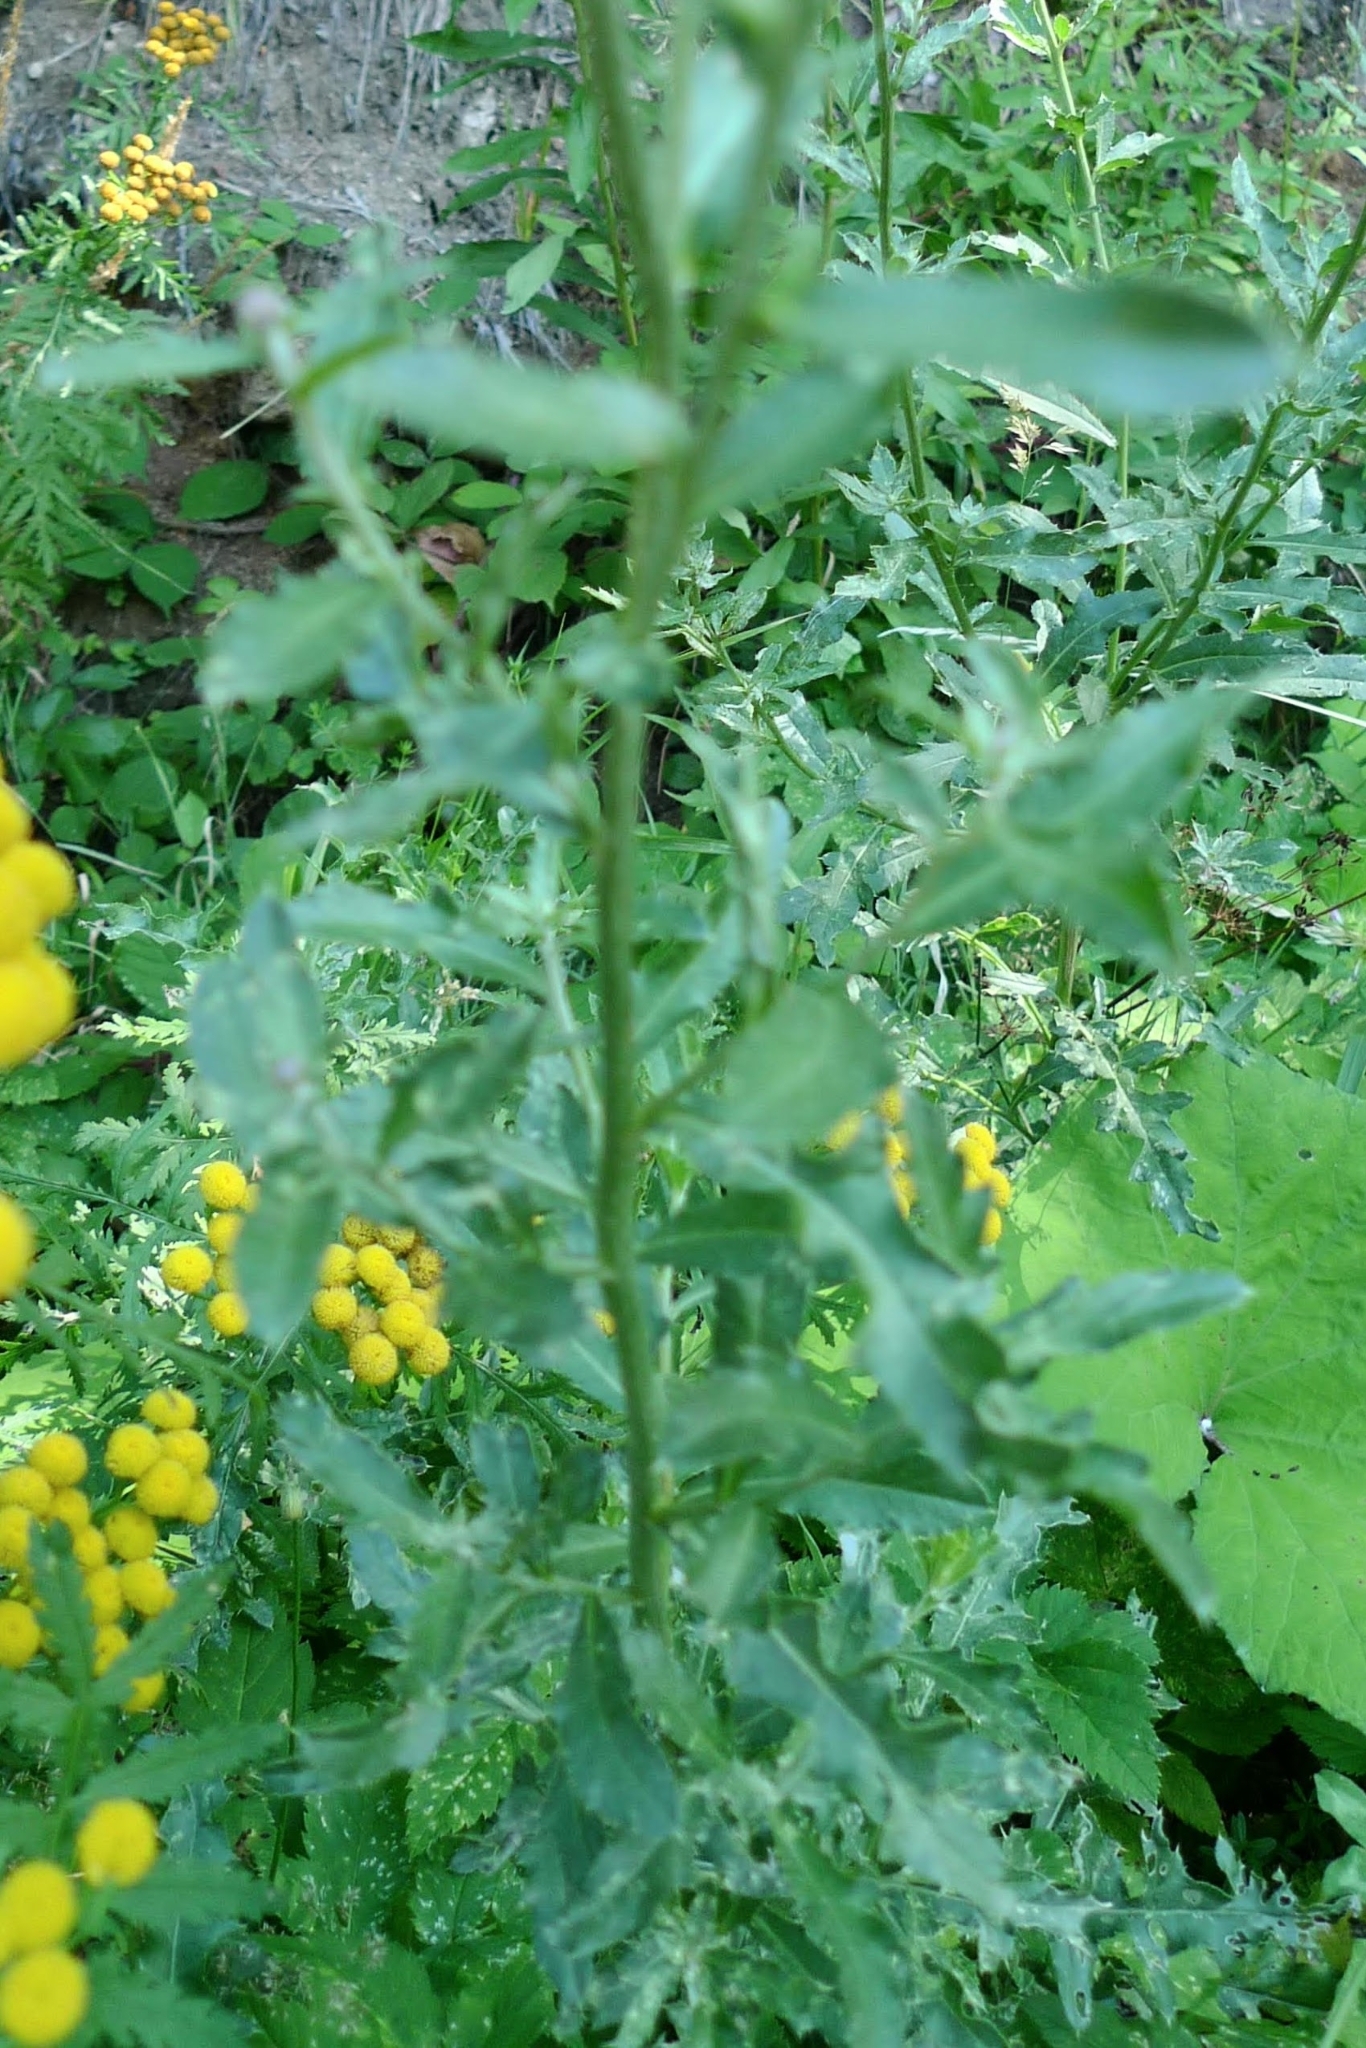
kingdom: Plantae
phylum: Tracheophyta
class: Magnoliopsida
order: Asterales
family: Asteraceae
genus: Cirsium
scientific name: Cirsium arvense
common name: Creeping thistle
